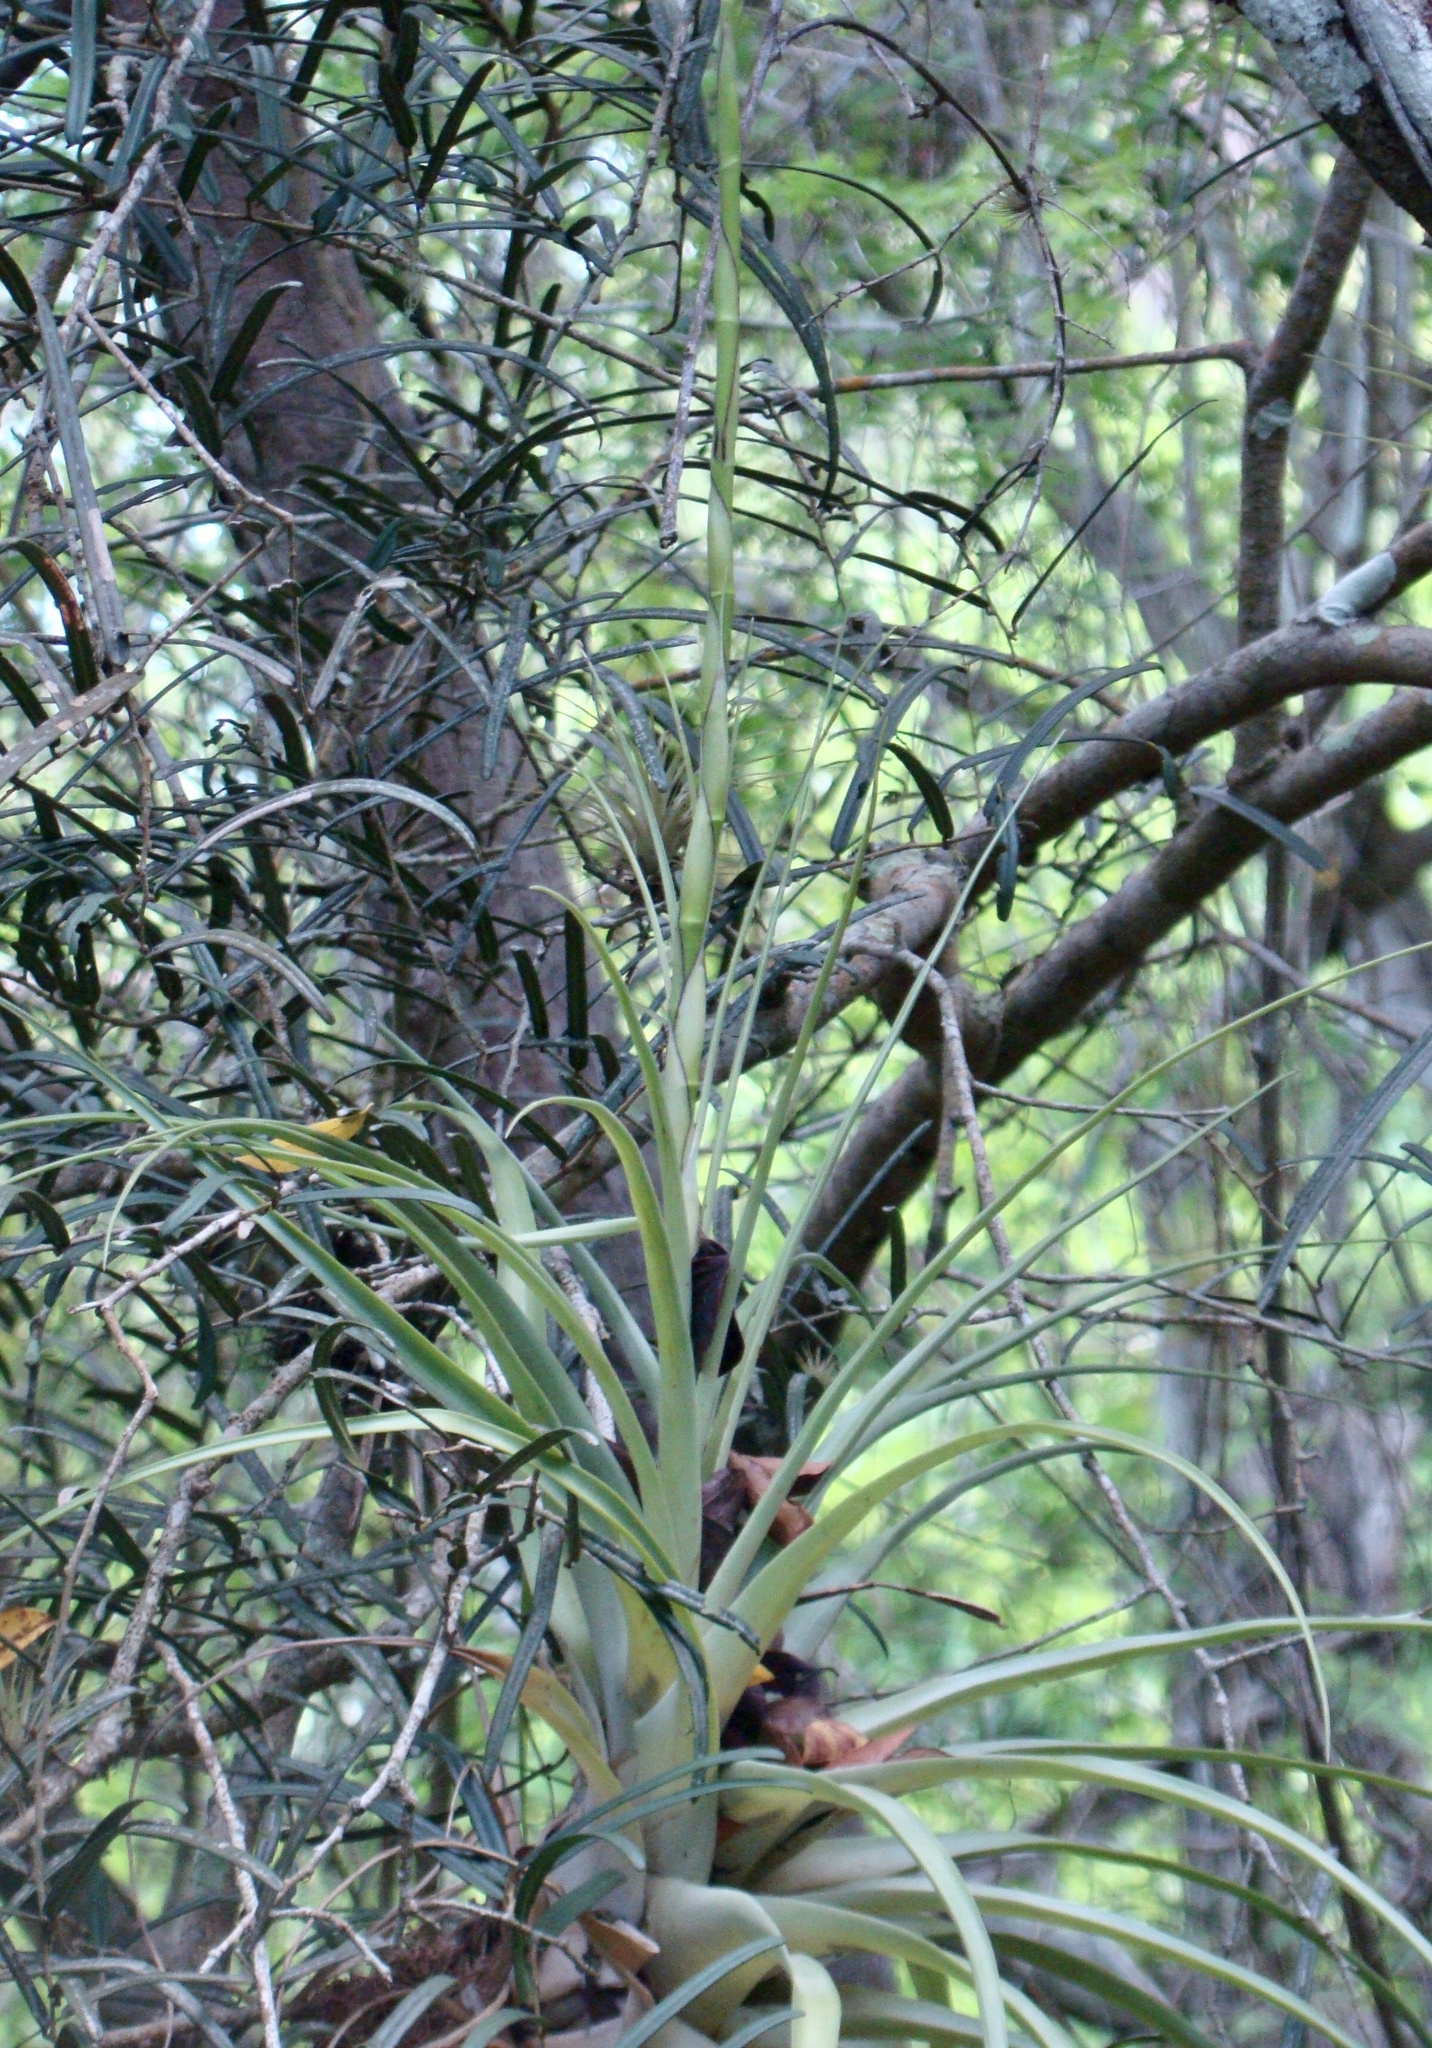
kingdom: Plantae
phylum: Tracheophyta
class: Liliopsida
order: Poales
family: Bromeliaceae
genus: Tillandsia
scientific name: Tillandsia utriculata
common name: Wild pine
